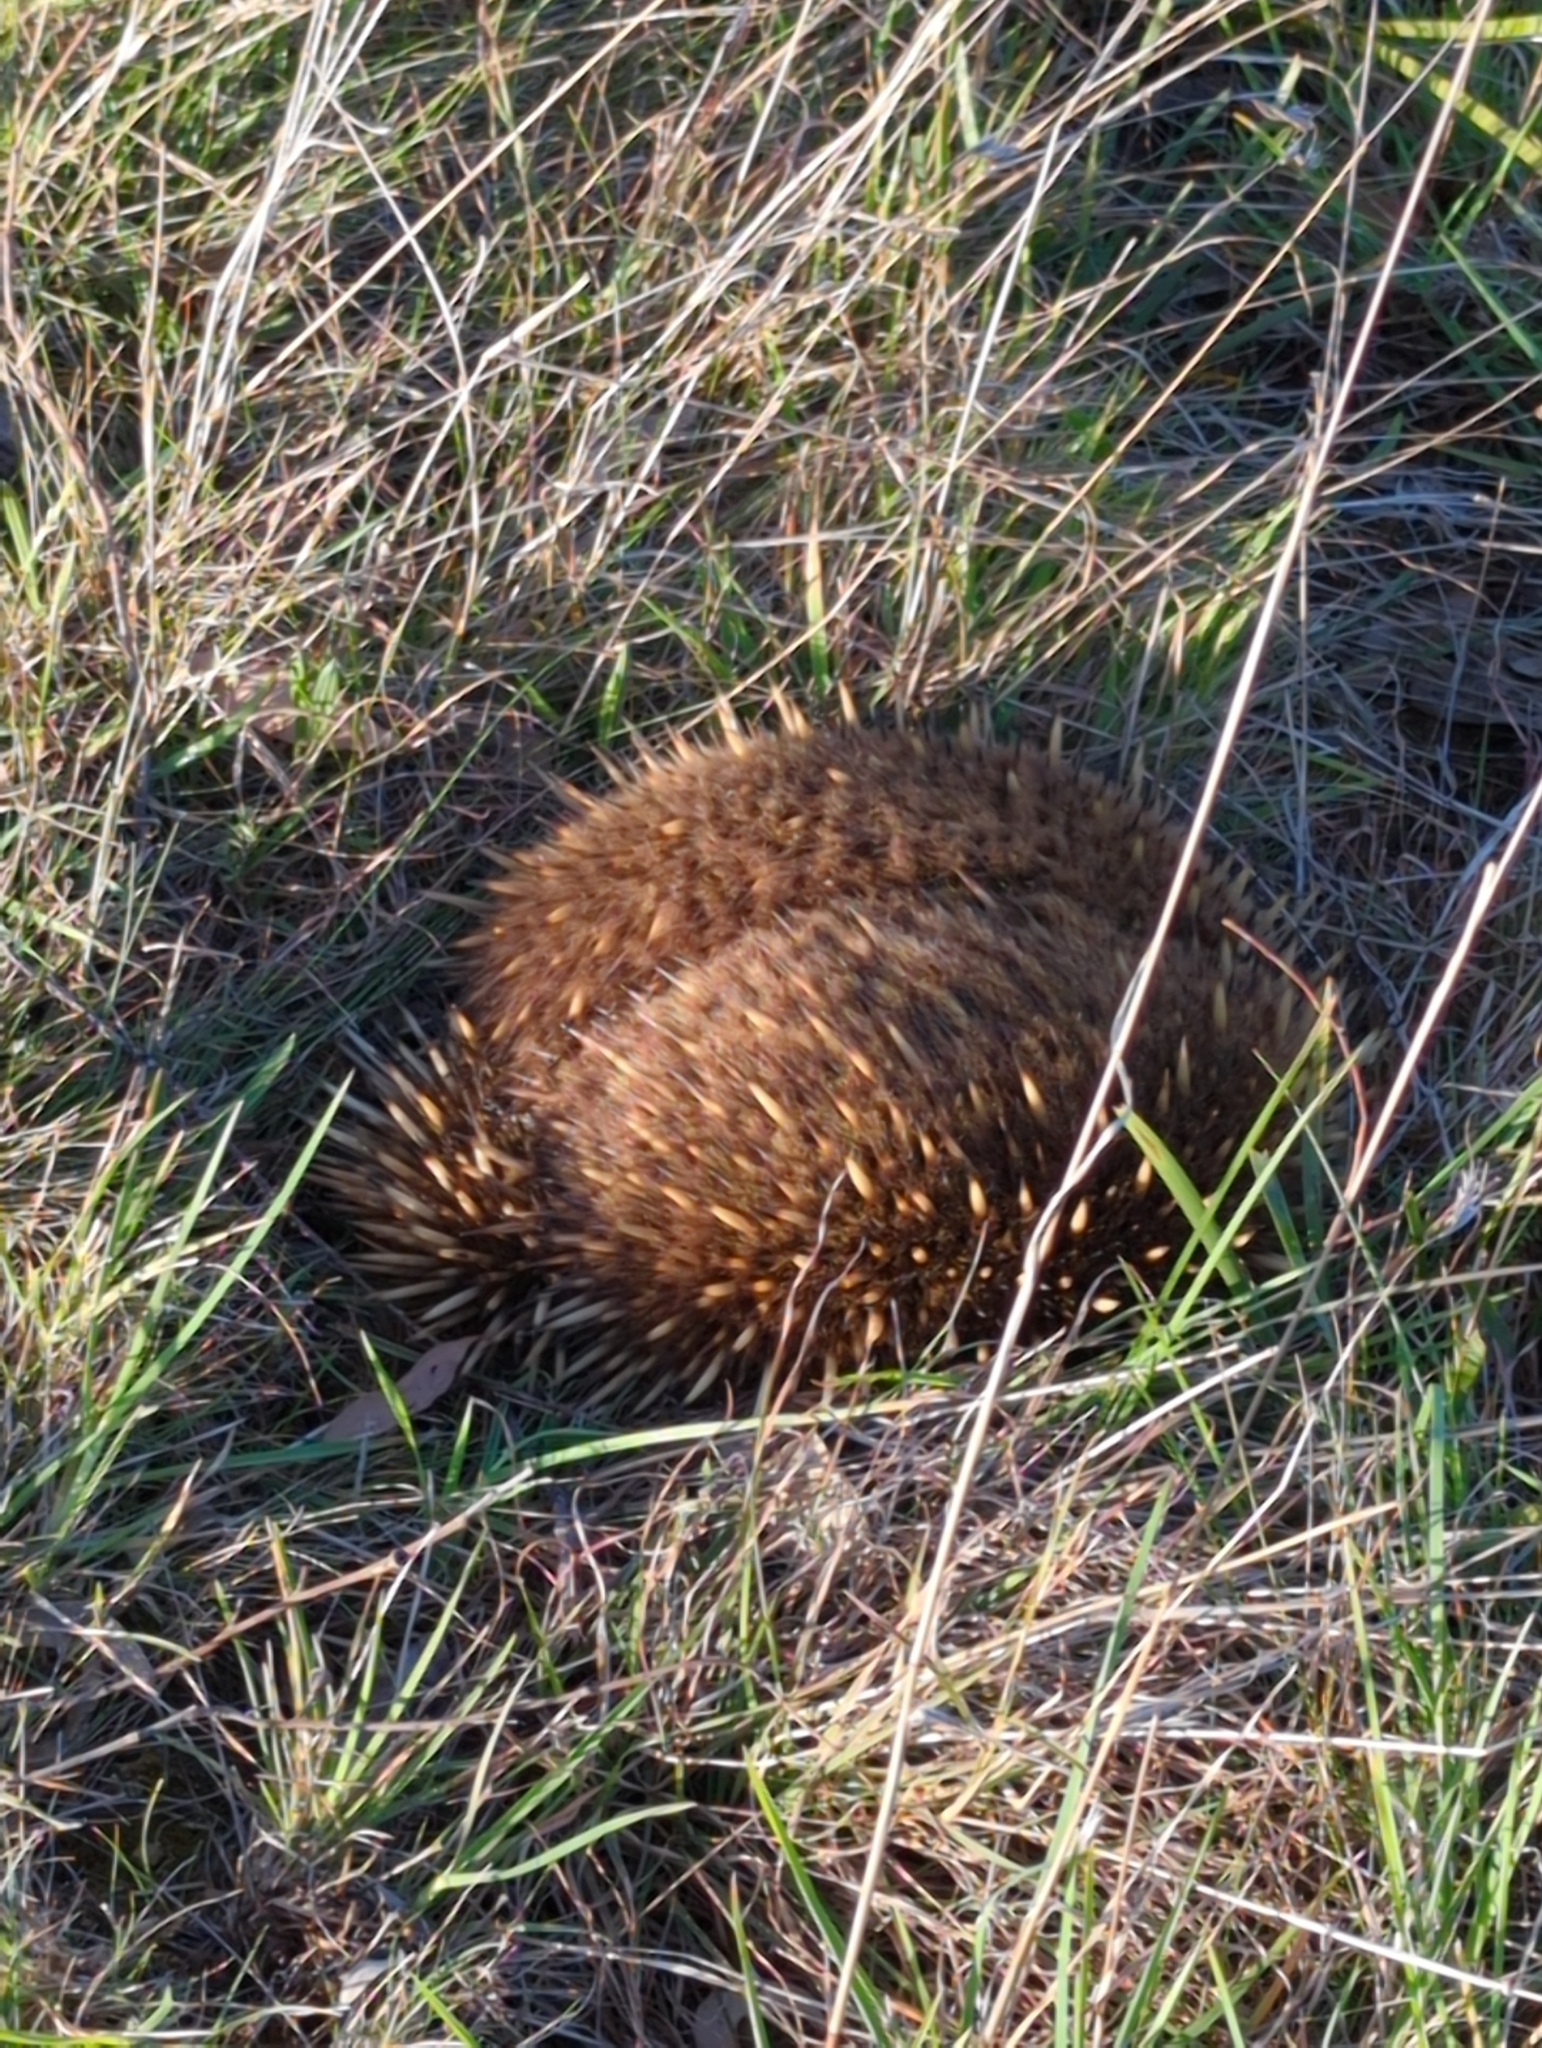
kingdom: Animalia
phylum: Chordata
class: Mammalia
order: Monotremata
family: Tachyglossidae
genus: Tachyglossus
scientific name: Tachyglossus aculeatus
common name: Short-beaked echidna
